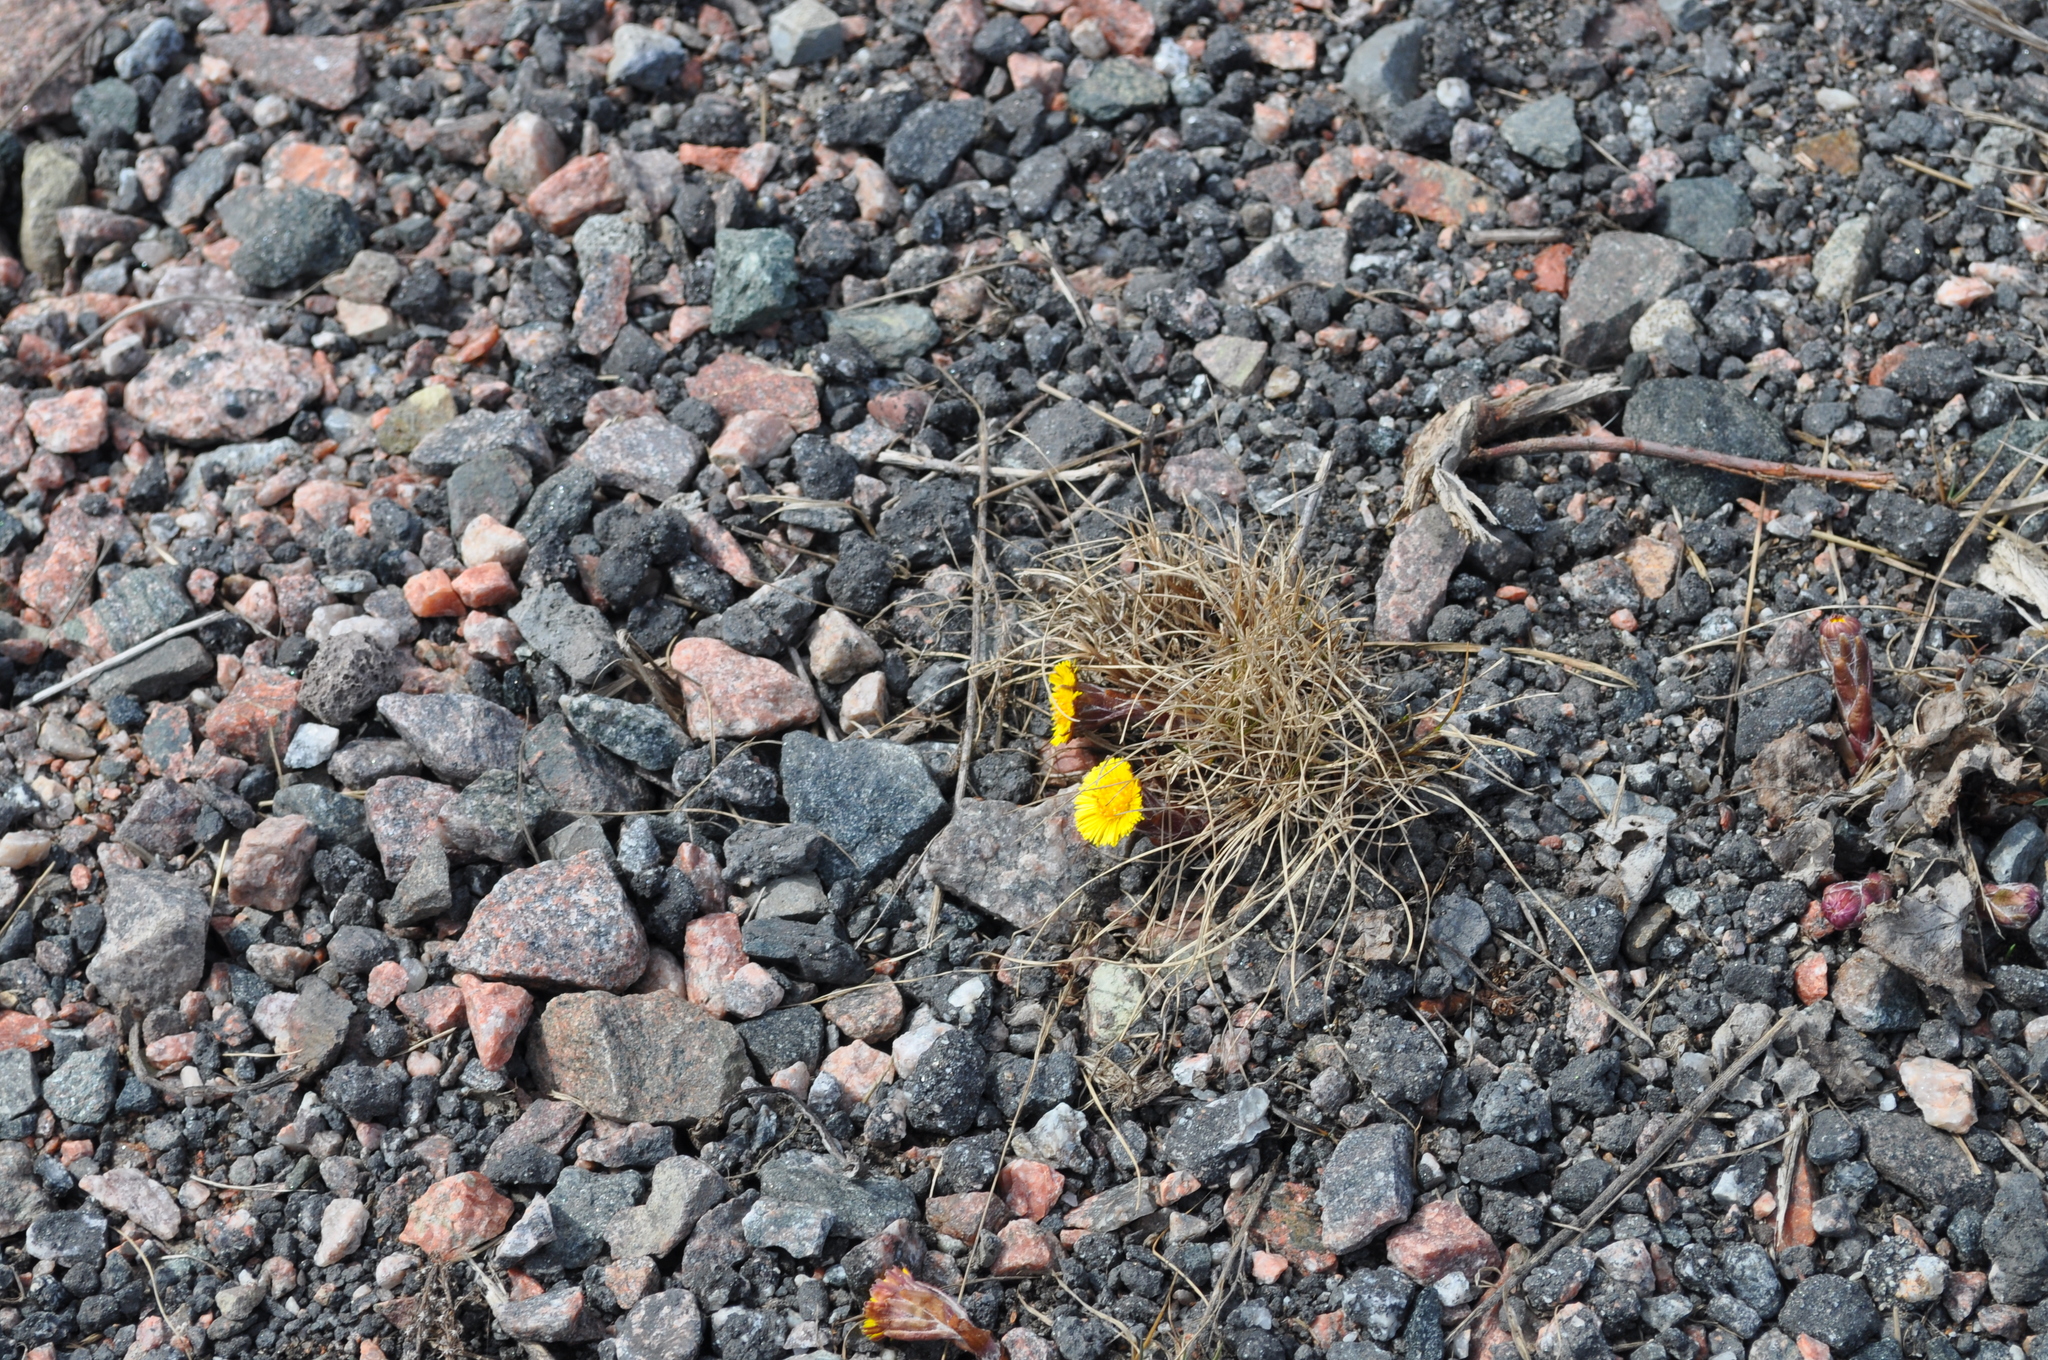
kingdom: Plantae
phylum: Tracheophyta
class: Magnoliopsida
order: Asterales
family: Asteraceae
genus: Tussilago
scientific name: Tussilago farfara
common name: Coltsfoot
